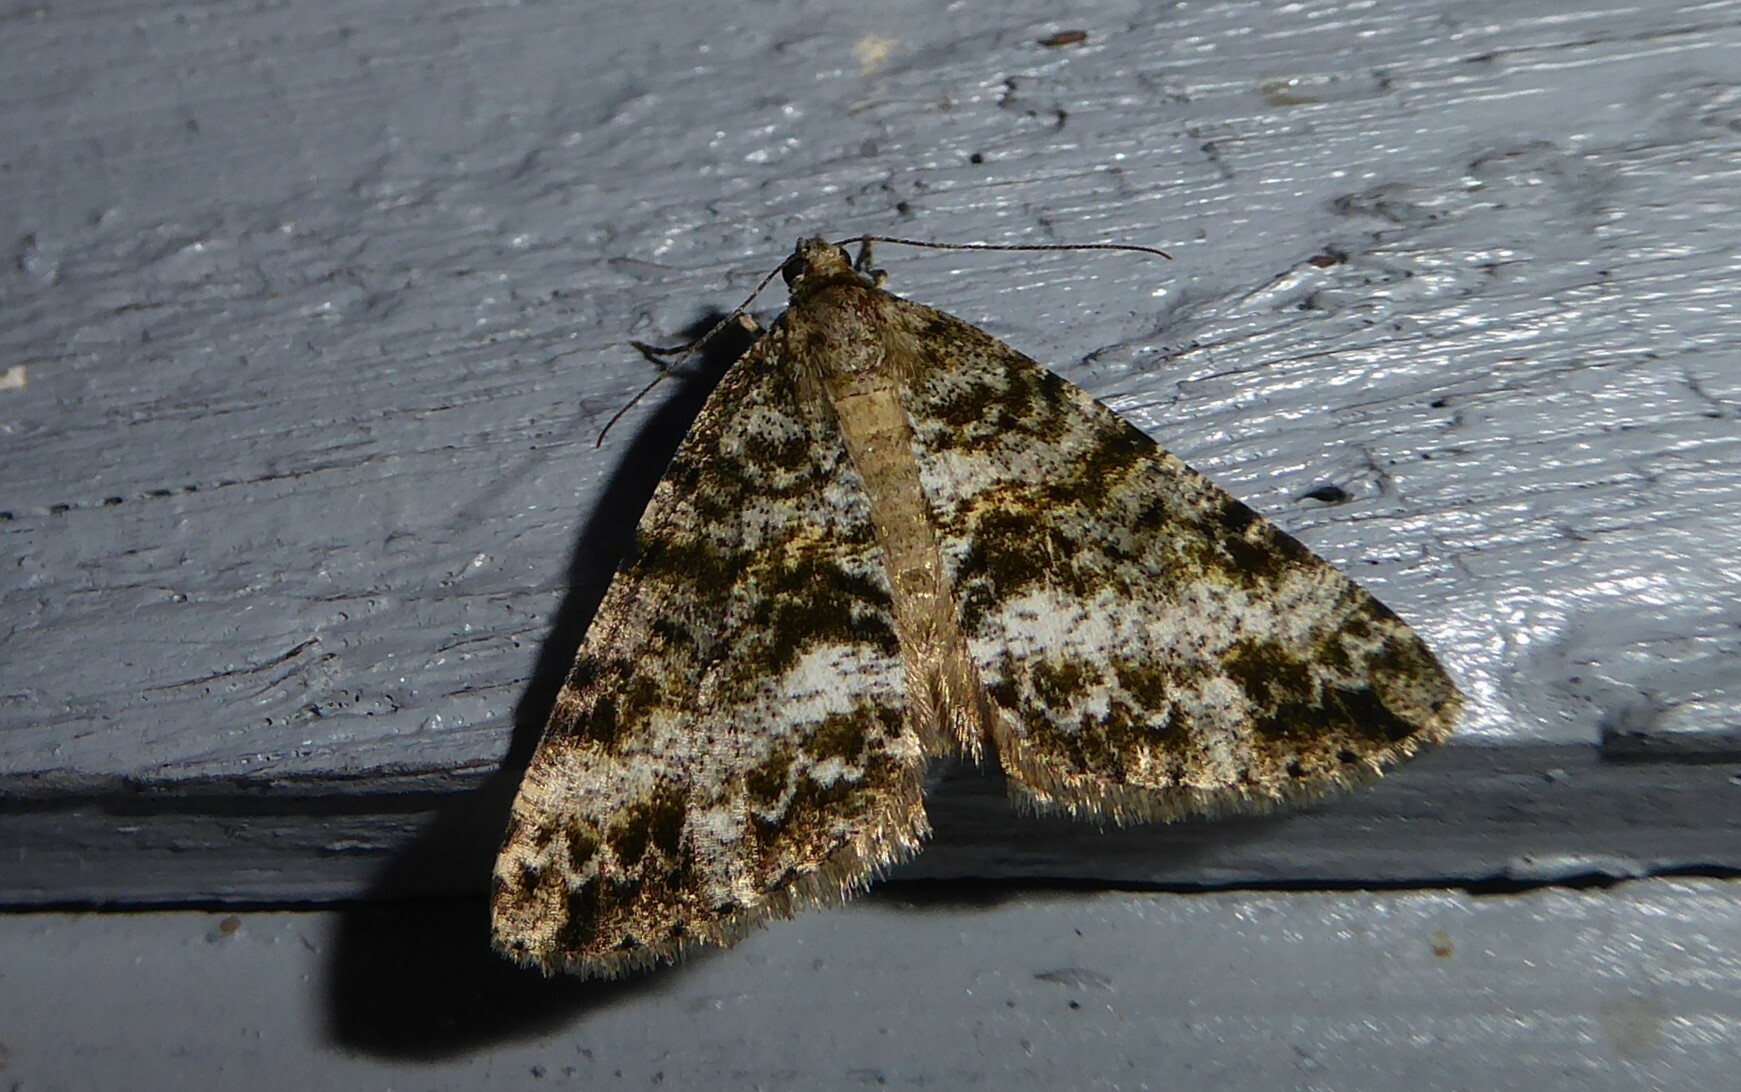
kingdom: Animalia
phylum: Arthropoda
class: Insecta
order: Lepidoptera
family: Geometridae
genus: Pseudocoremia
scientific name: Pseudocoremia lactiflua
